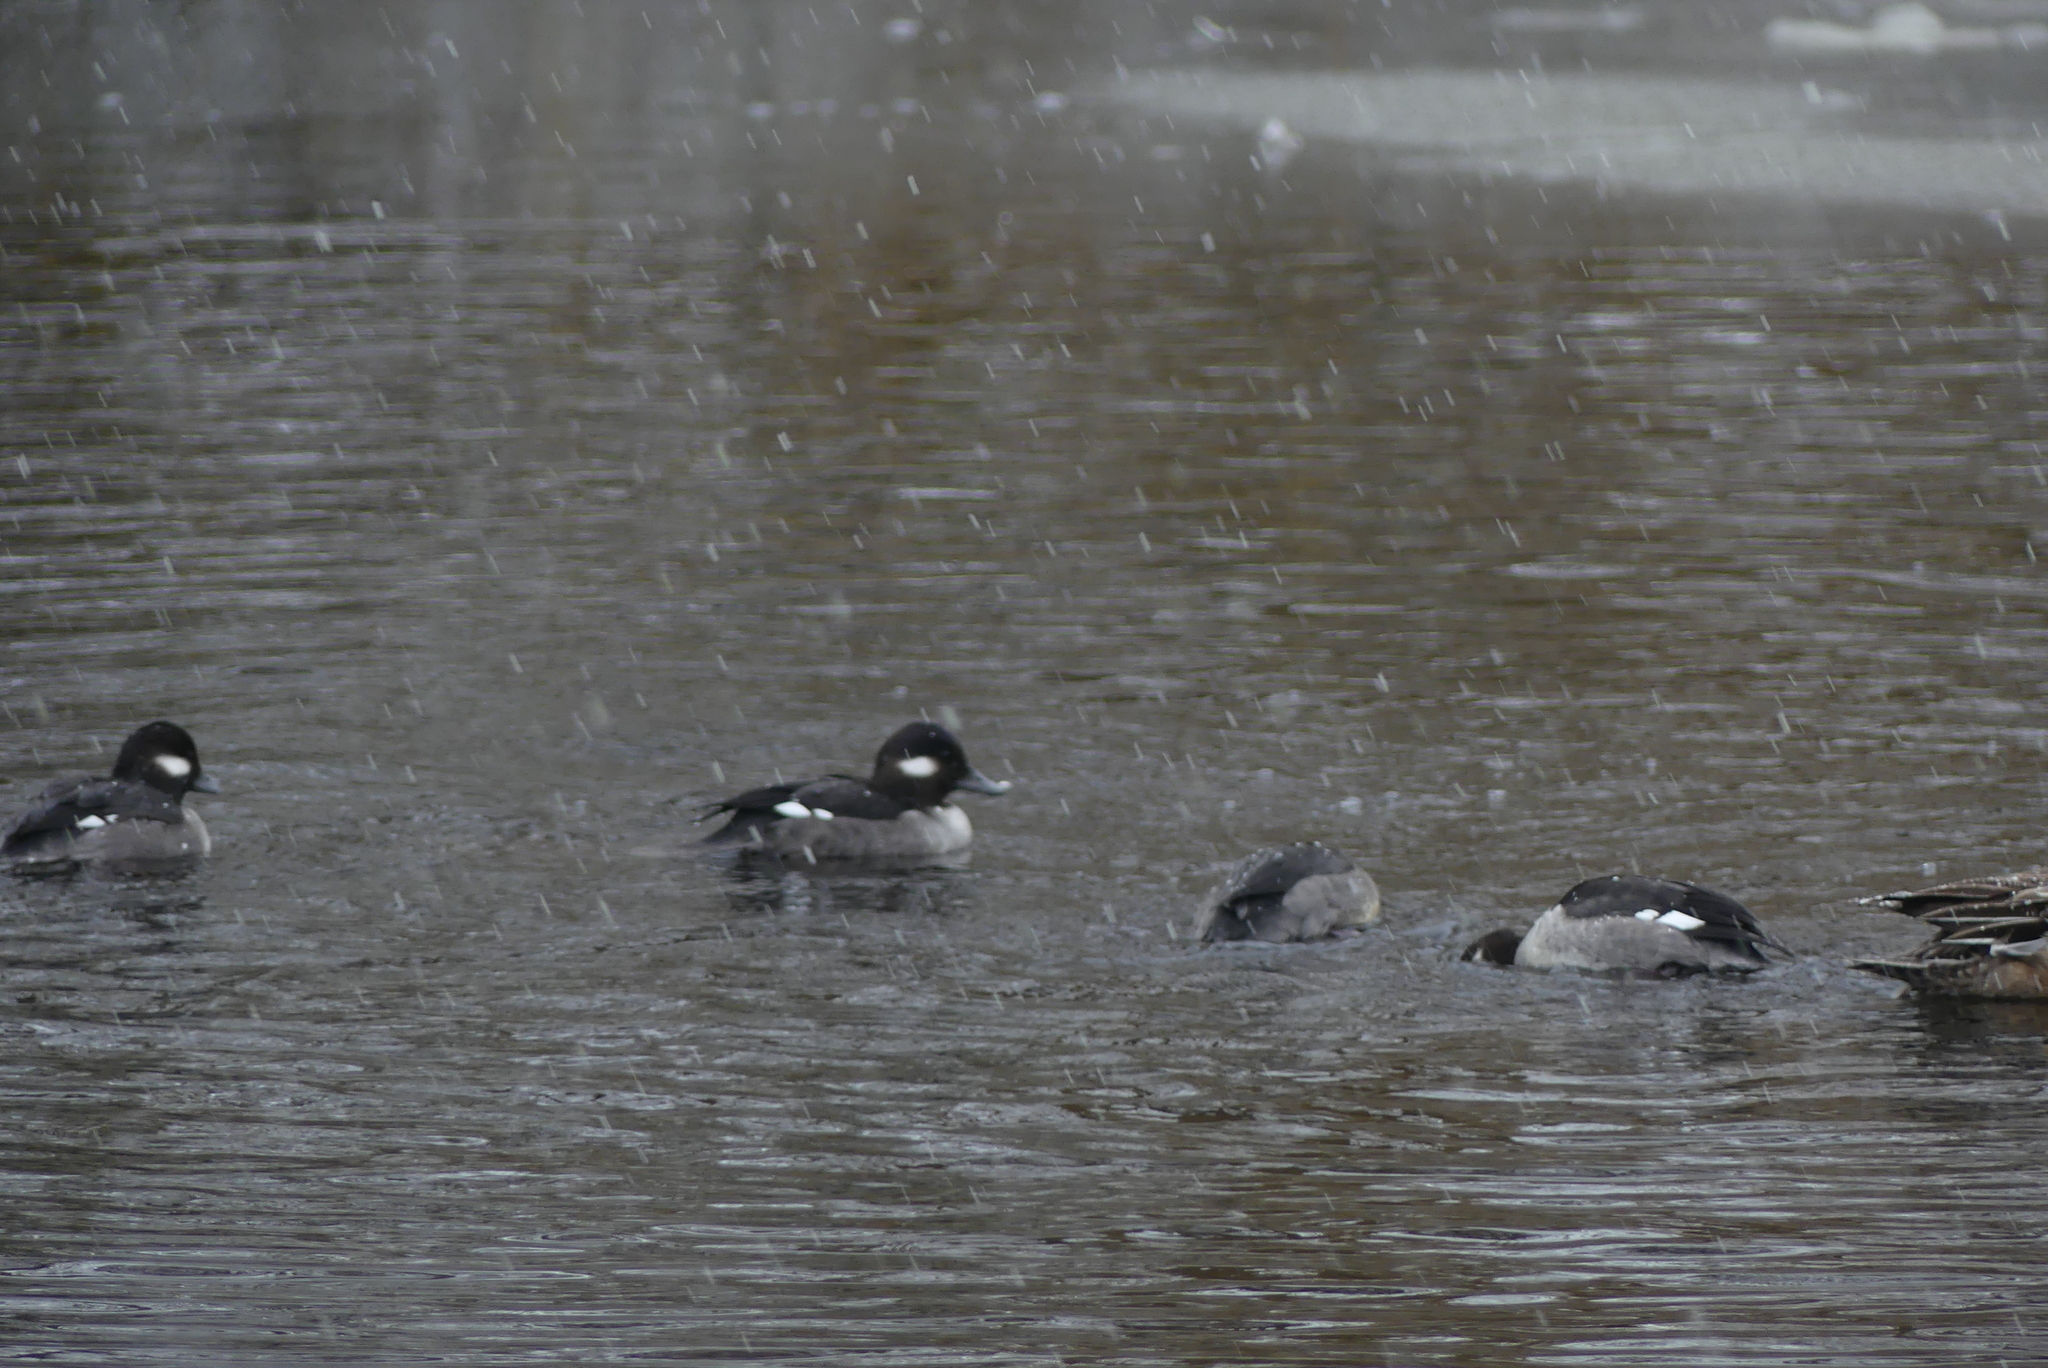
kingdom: Animalia
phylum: Chordata
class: Aves
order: Anseriformes
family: Anatidae
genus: Bucephala
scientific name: Bucephala albeola
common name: Bufflehead
